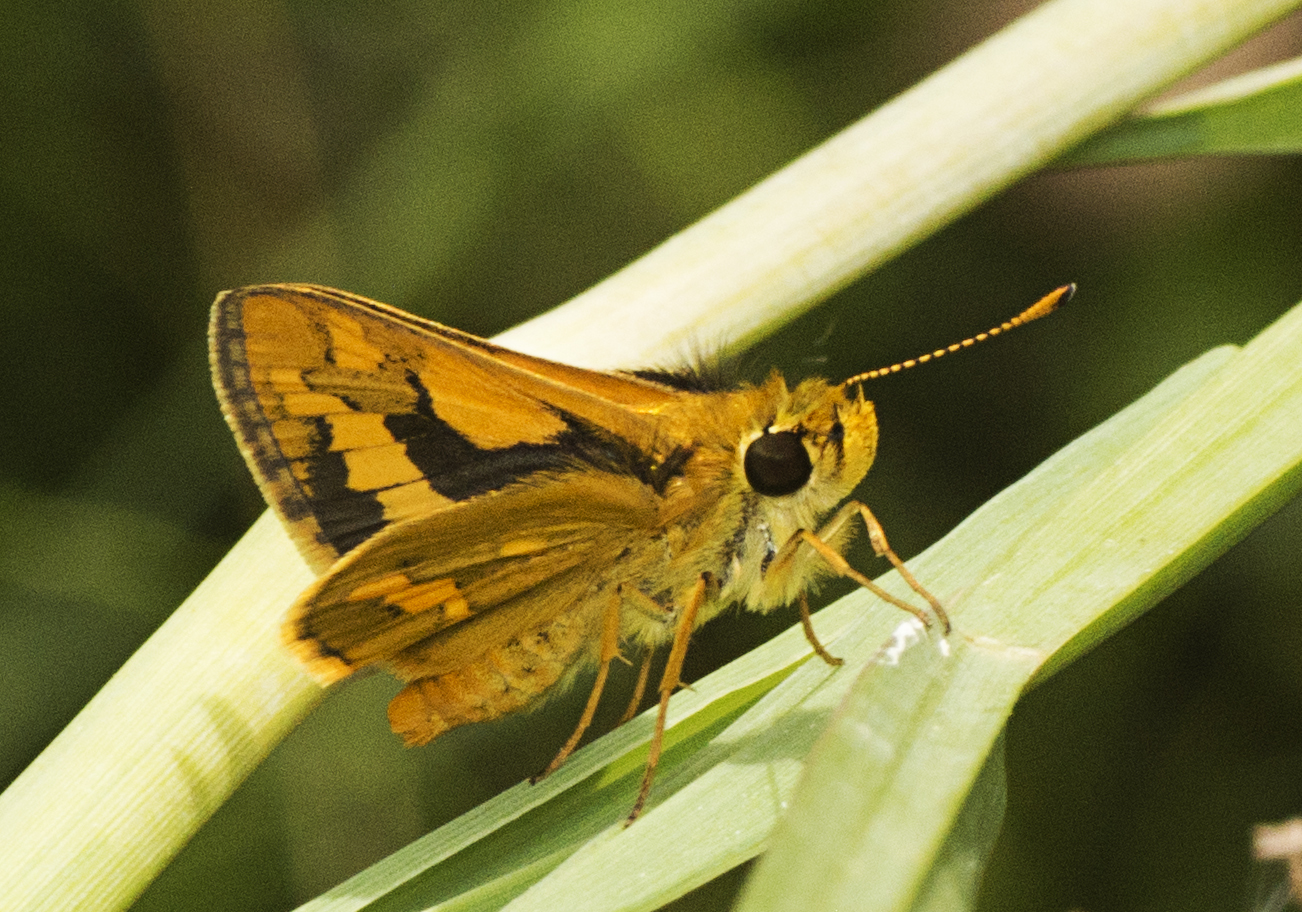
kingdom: Animalia
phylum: Arthropoda
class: Insecta
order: Lepidoptera
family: Hesperiidae
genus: Ocybadistes
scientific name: Ocybadistes flavovittata
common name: Narrow-brand grass-dart
